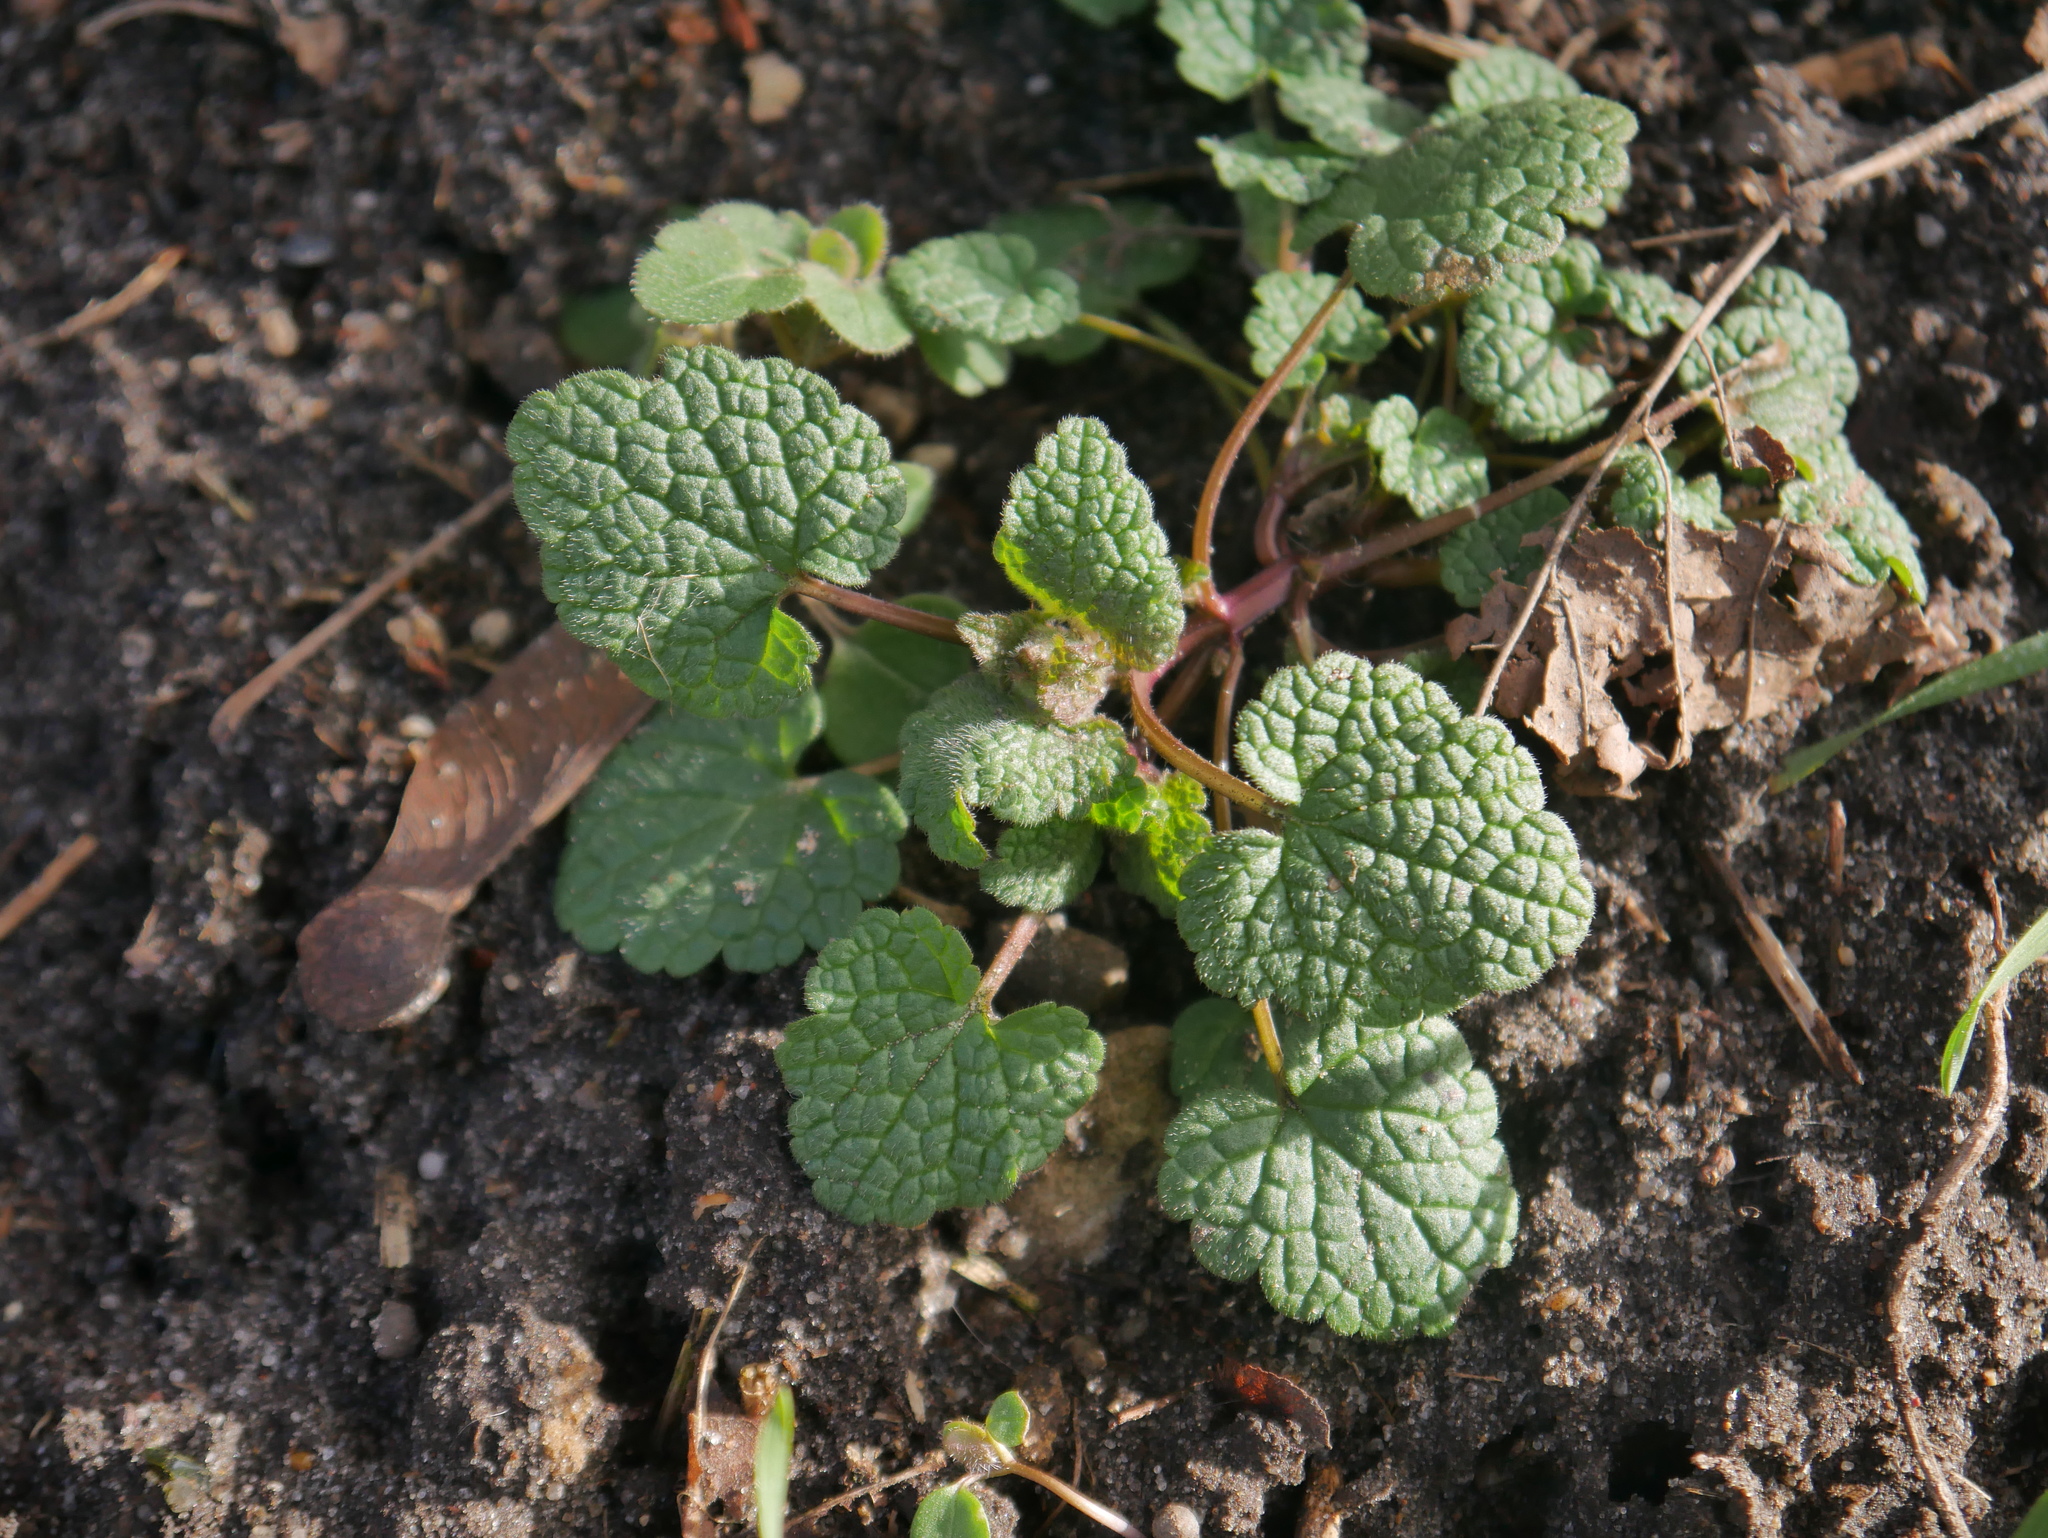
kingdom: Plantae
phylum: Tracheophyta
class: Magnoliopsida
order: Lamiales
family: Lamiaceae
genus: Lamium
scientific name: Lamium purpureum
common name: Red dead-nettle
